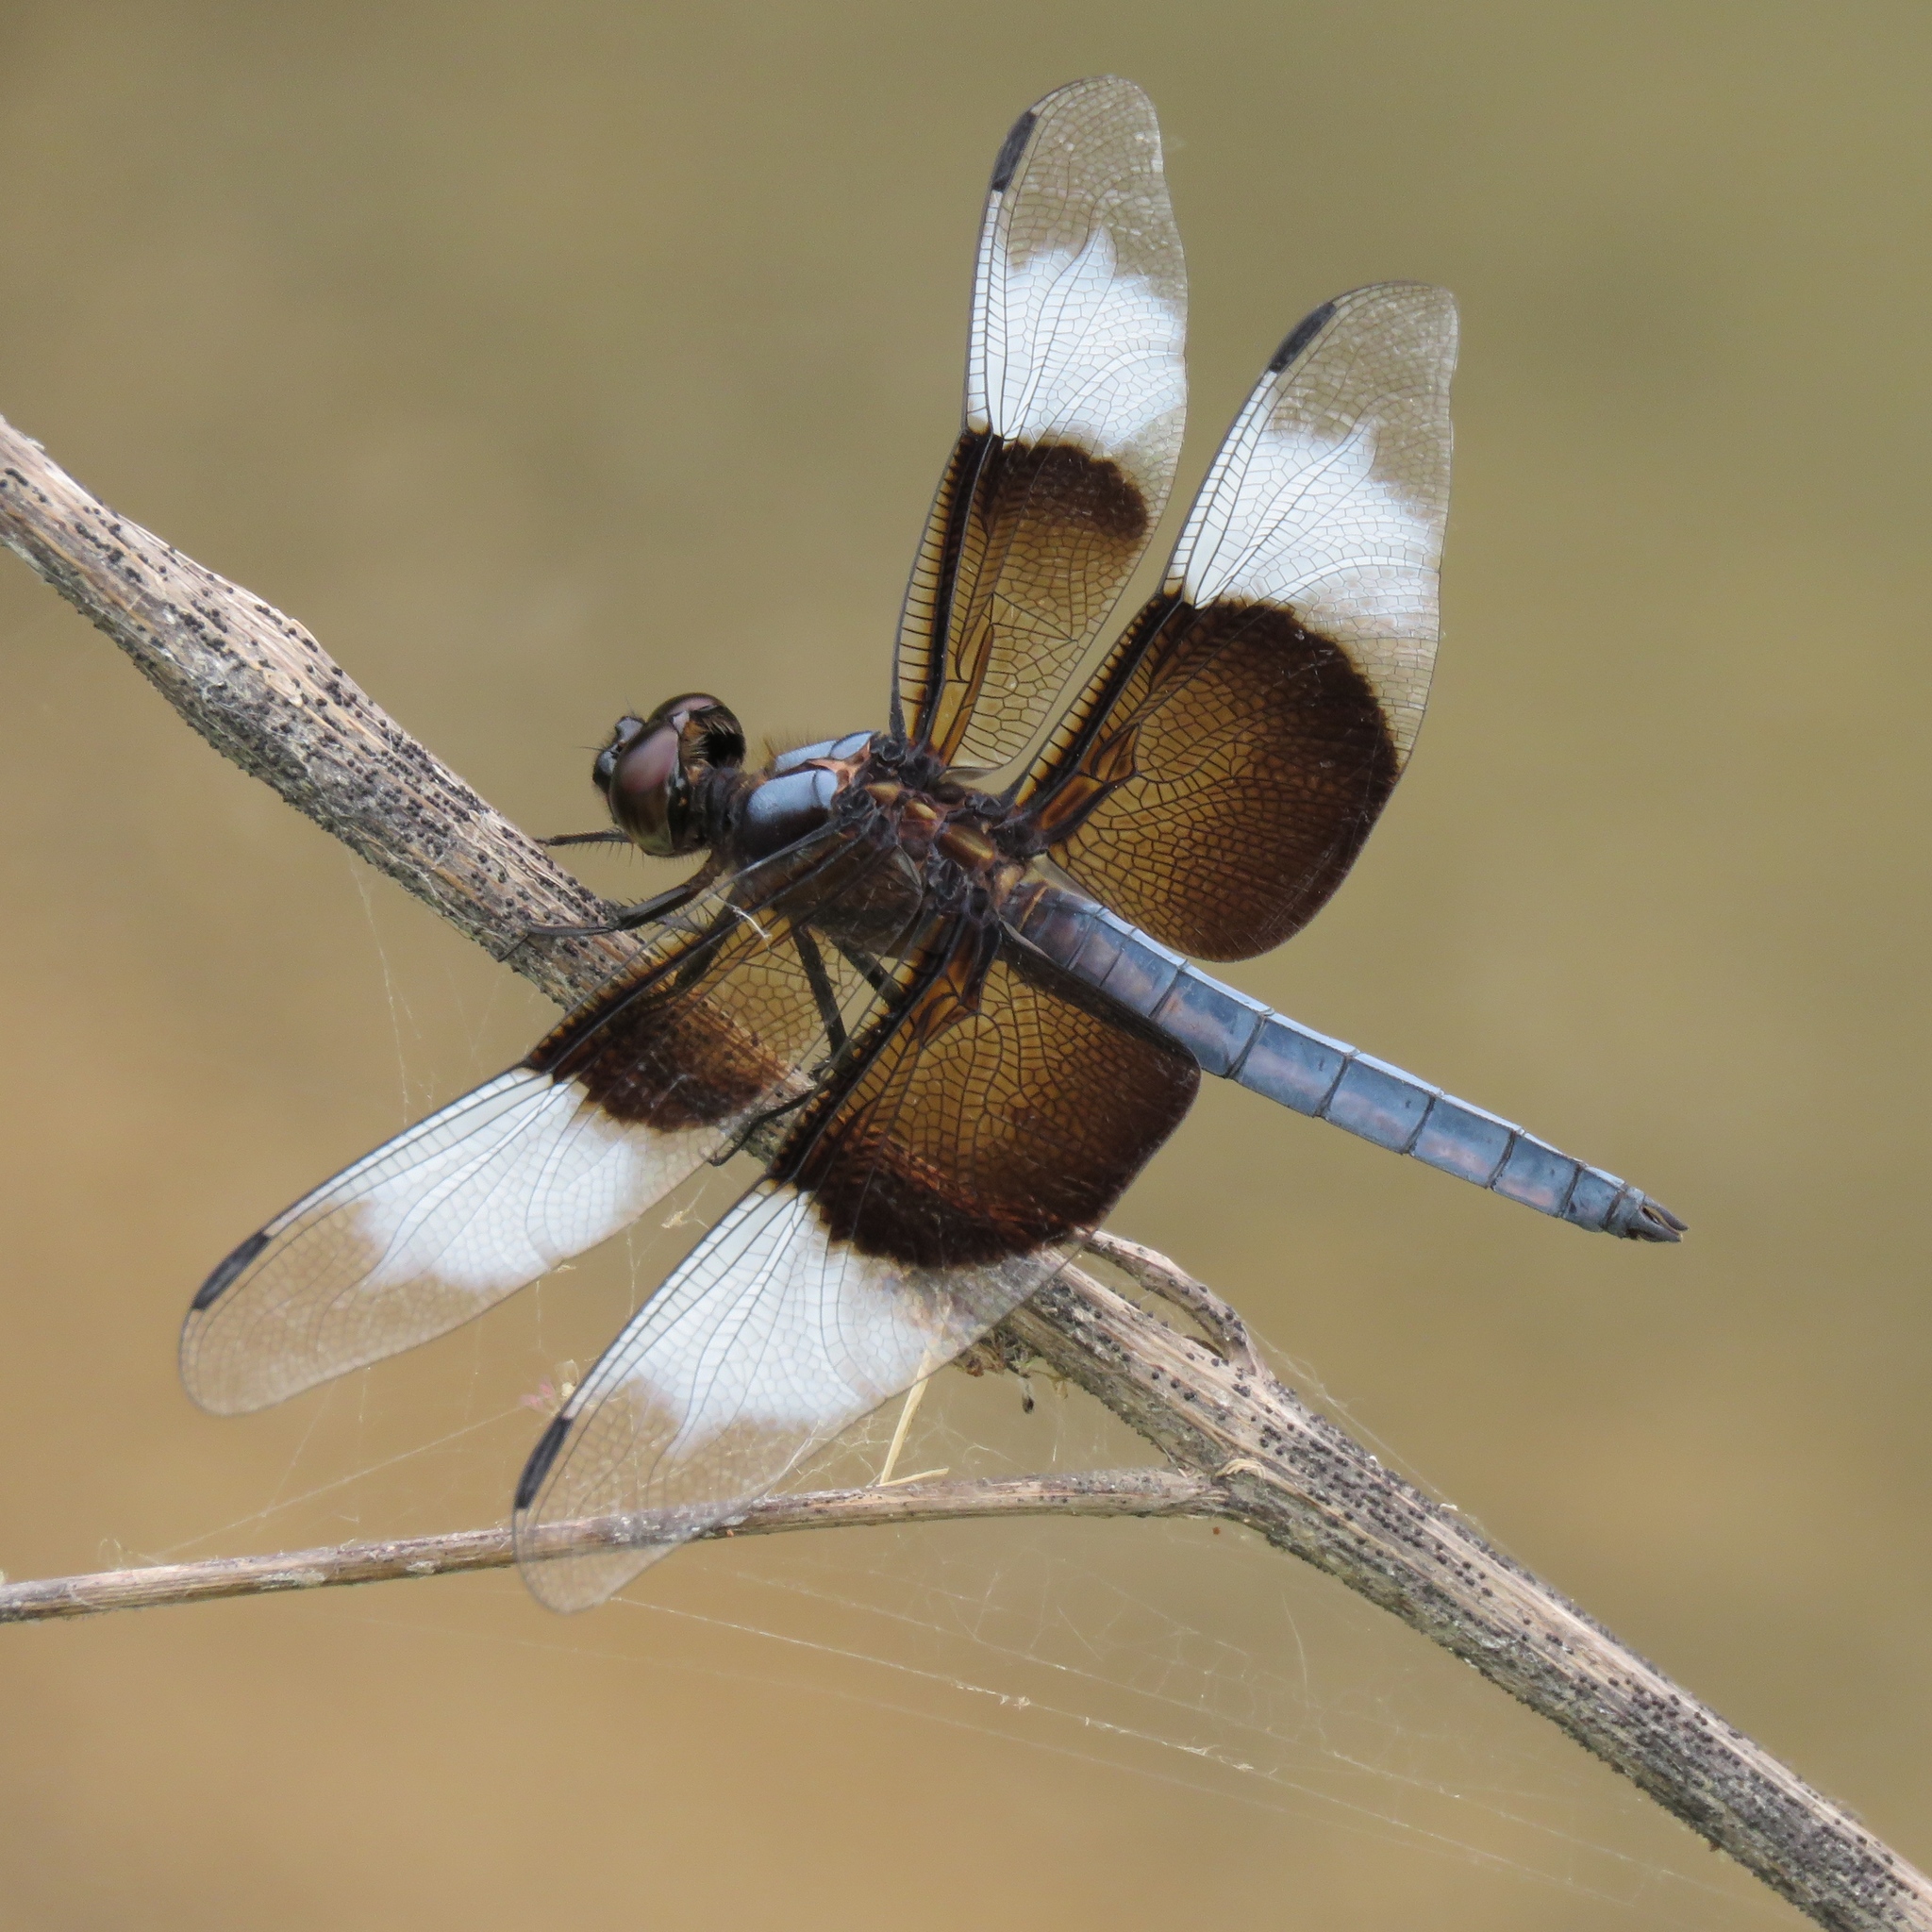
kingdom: Animalia
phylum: Arthropoda
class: Insecta
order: Odonata
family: Libellulidae
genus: Libellula
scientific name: Libellula luctuosa
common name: Widow skimmer
